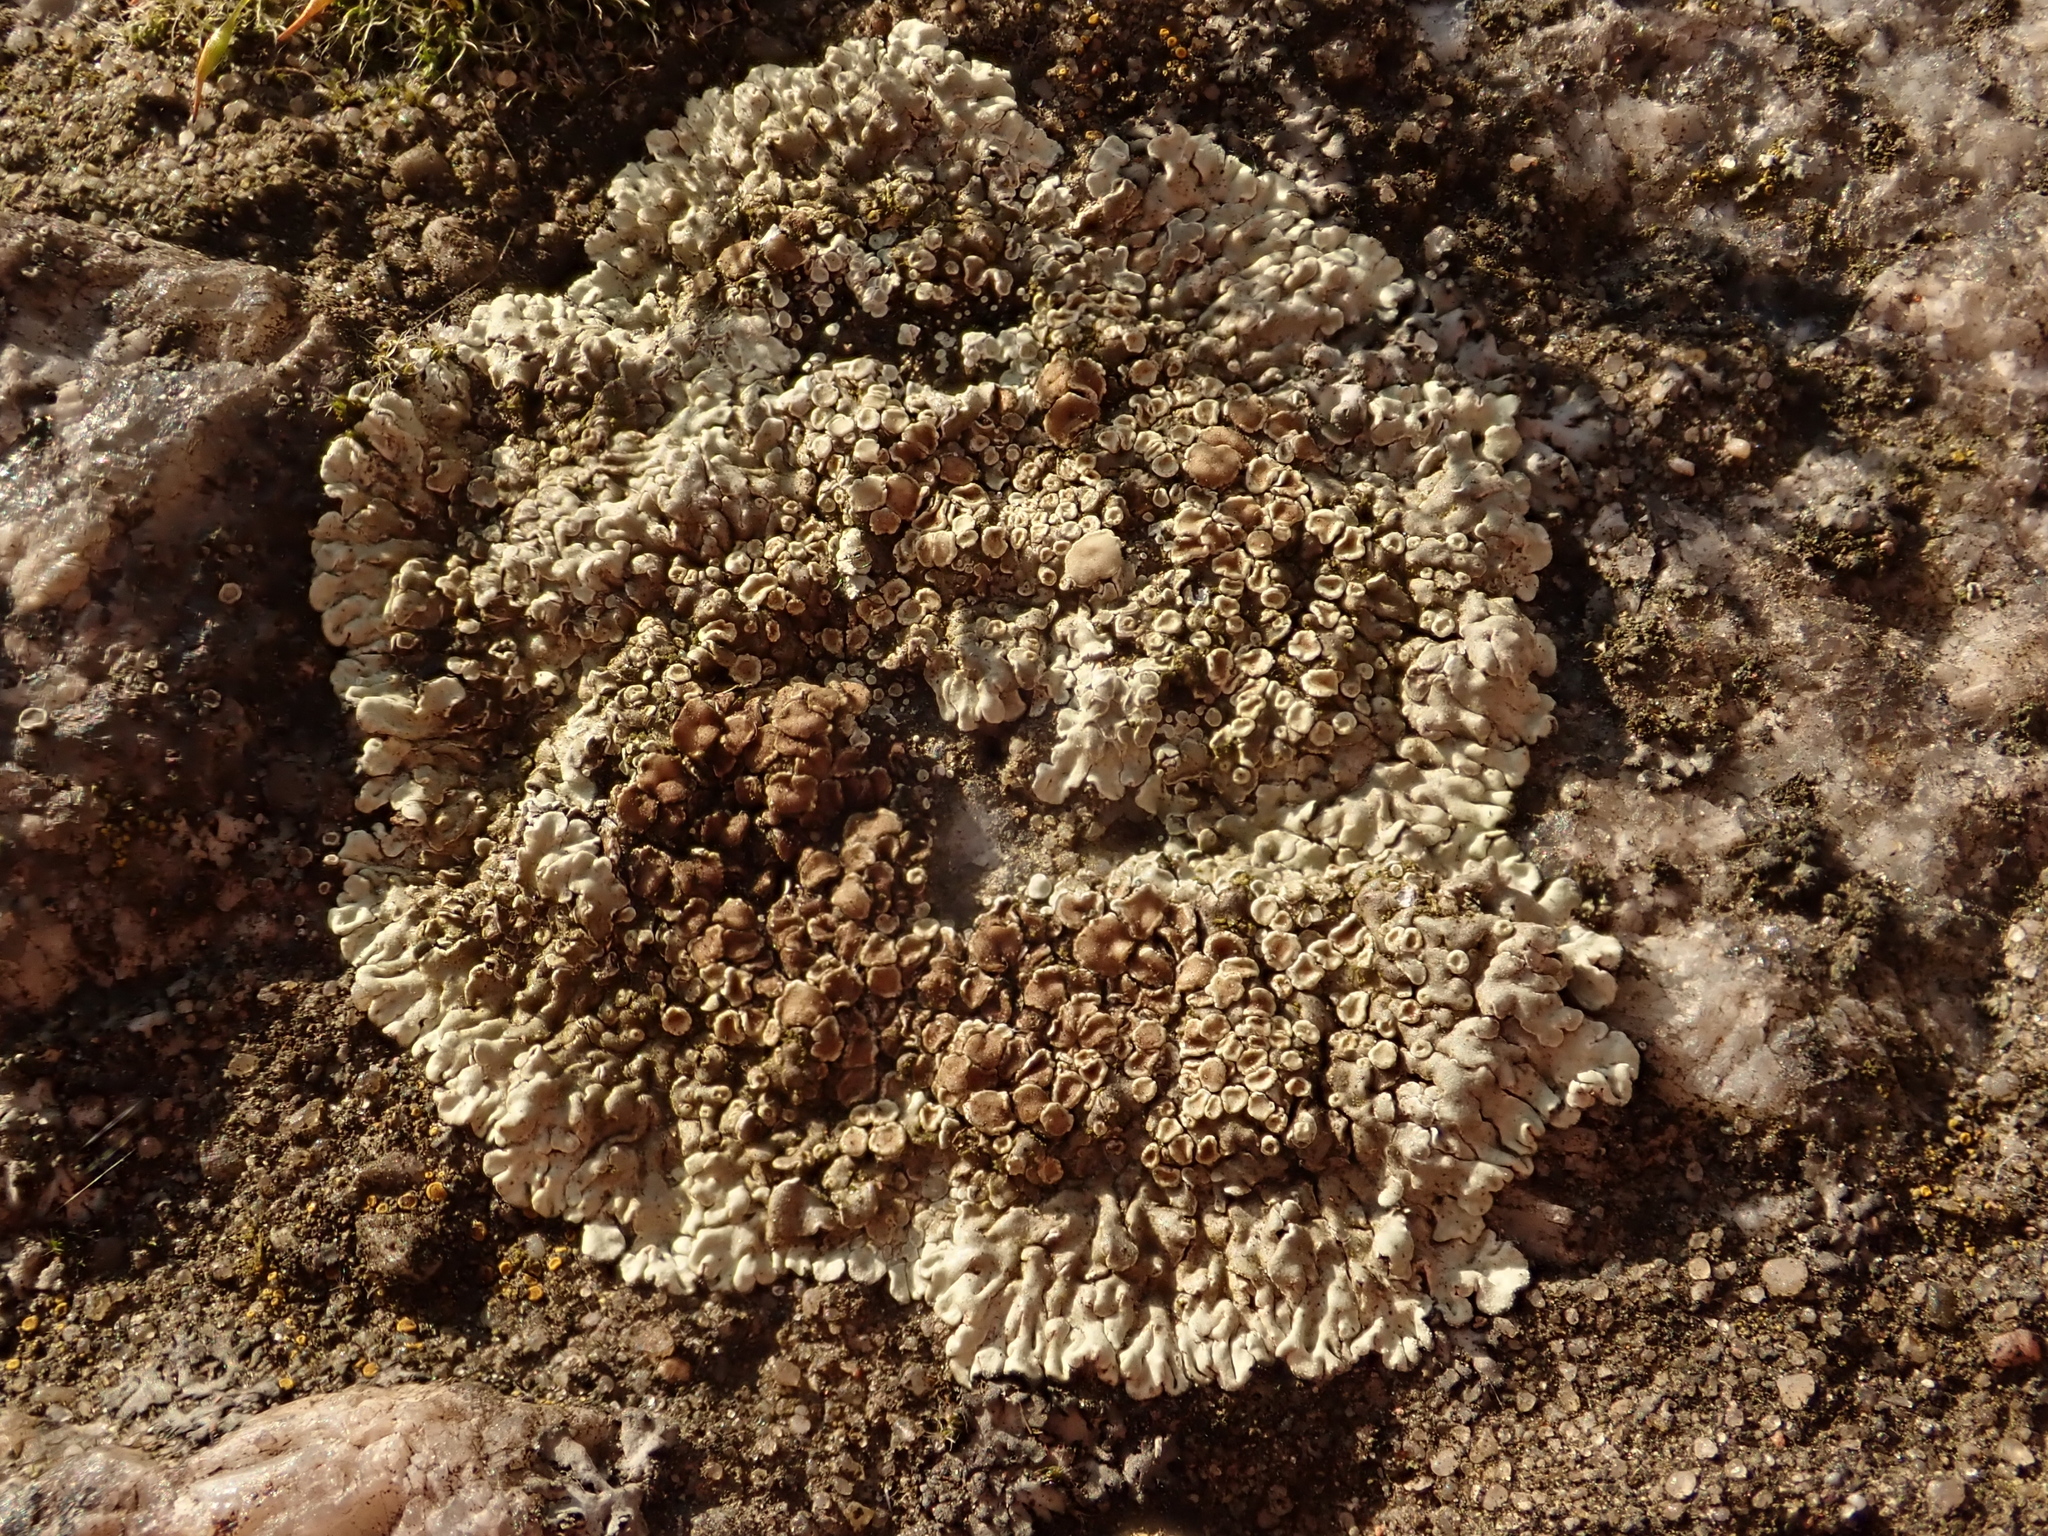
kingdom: Fungi
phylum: Ascomycota
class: Lecanoromycetes
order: Lecanorales
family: Lecanoraceae
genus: Protoparmeliopsis
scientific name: Protoparmeliopsis muralis
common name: Stonewall rim lichen
